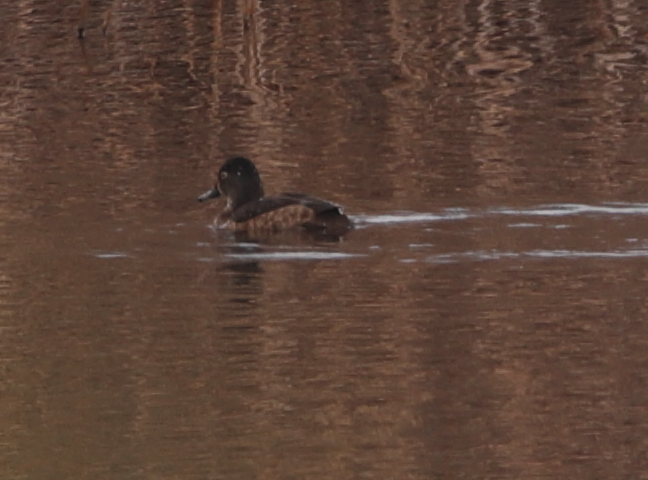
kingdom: Animalia
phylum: Chordata
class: Aves
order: Anseriformes
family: Anatidae
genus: Aythya
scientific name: Aythya collaris
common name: Ring-necked duck
